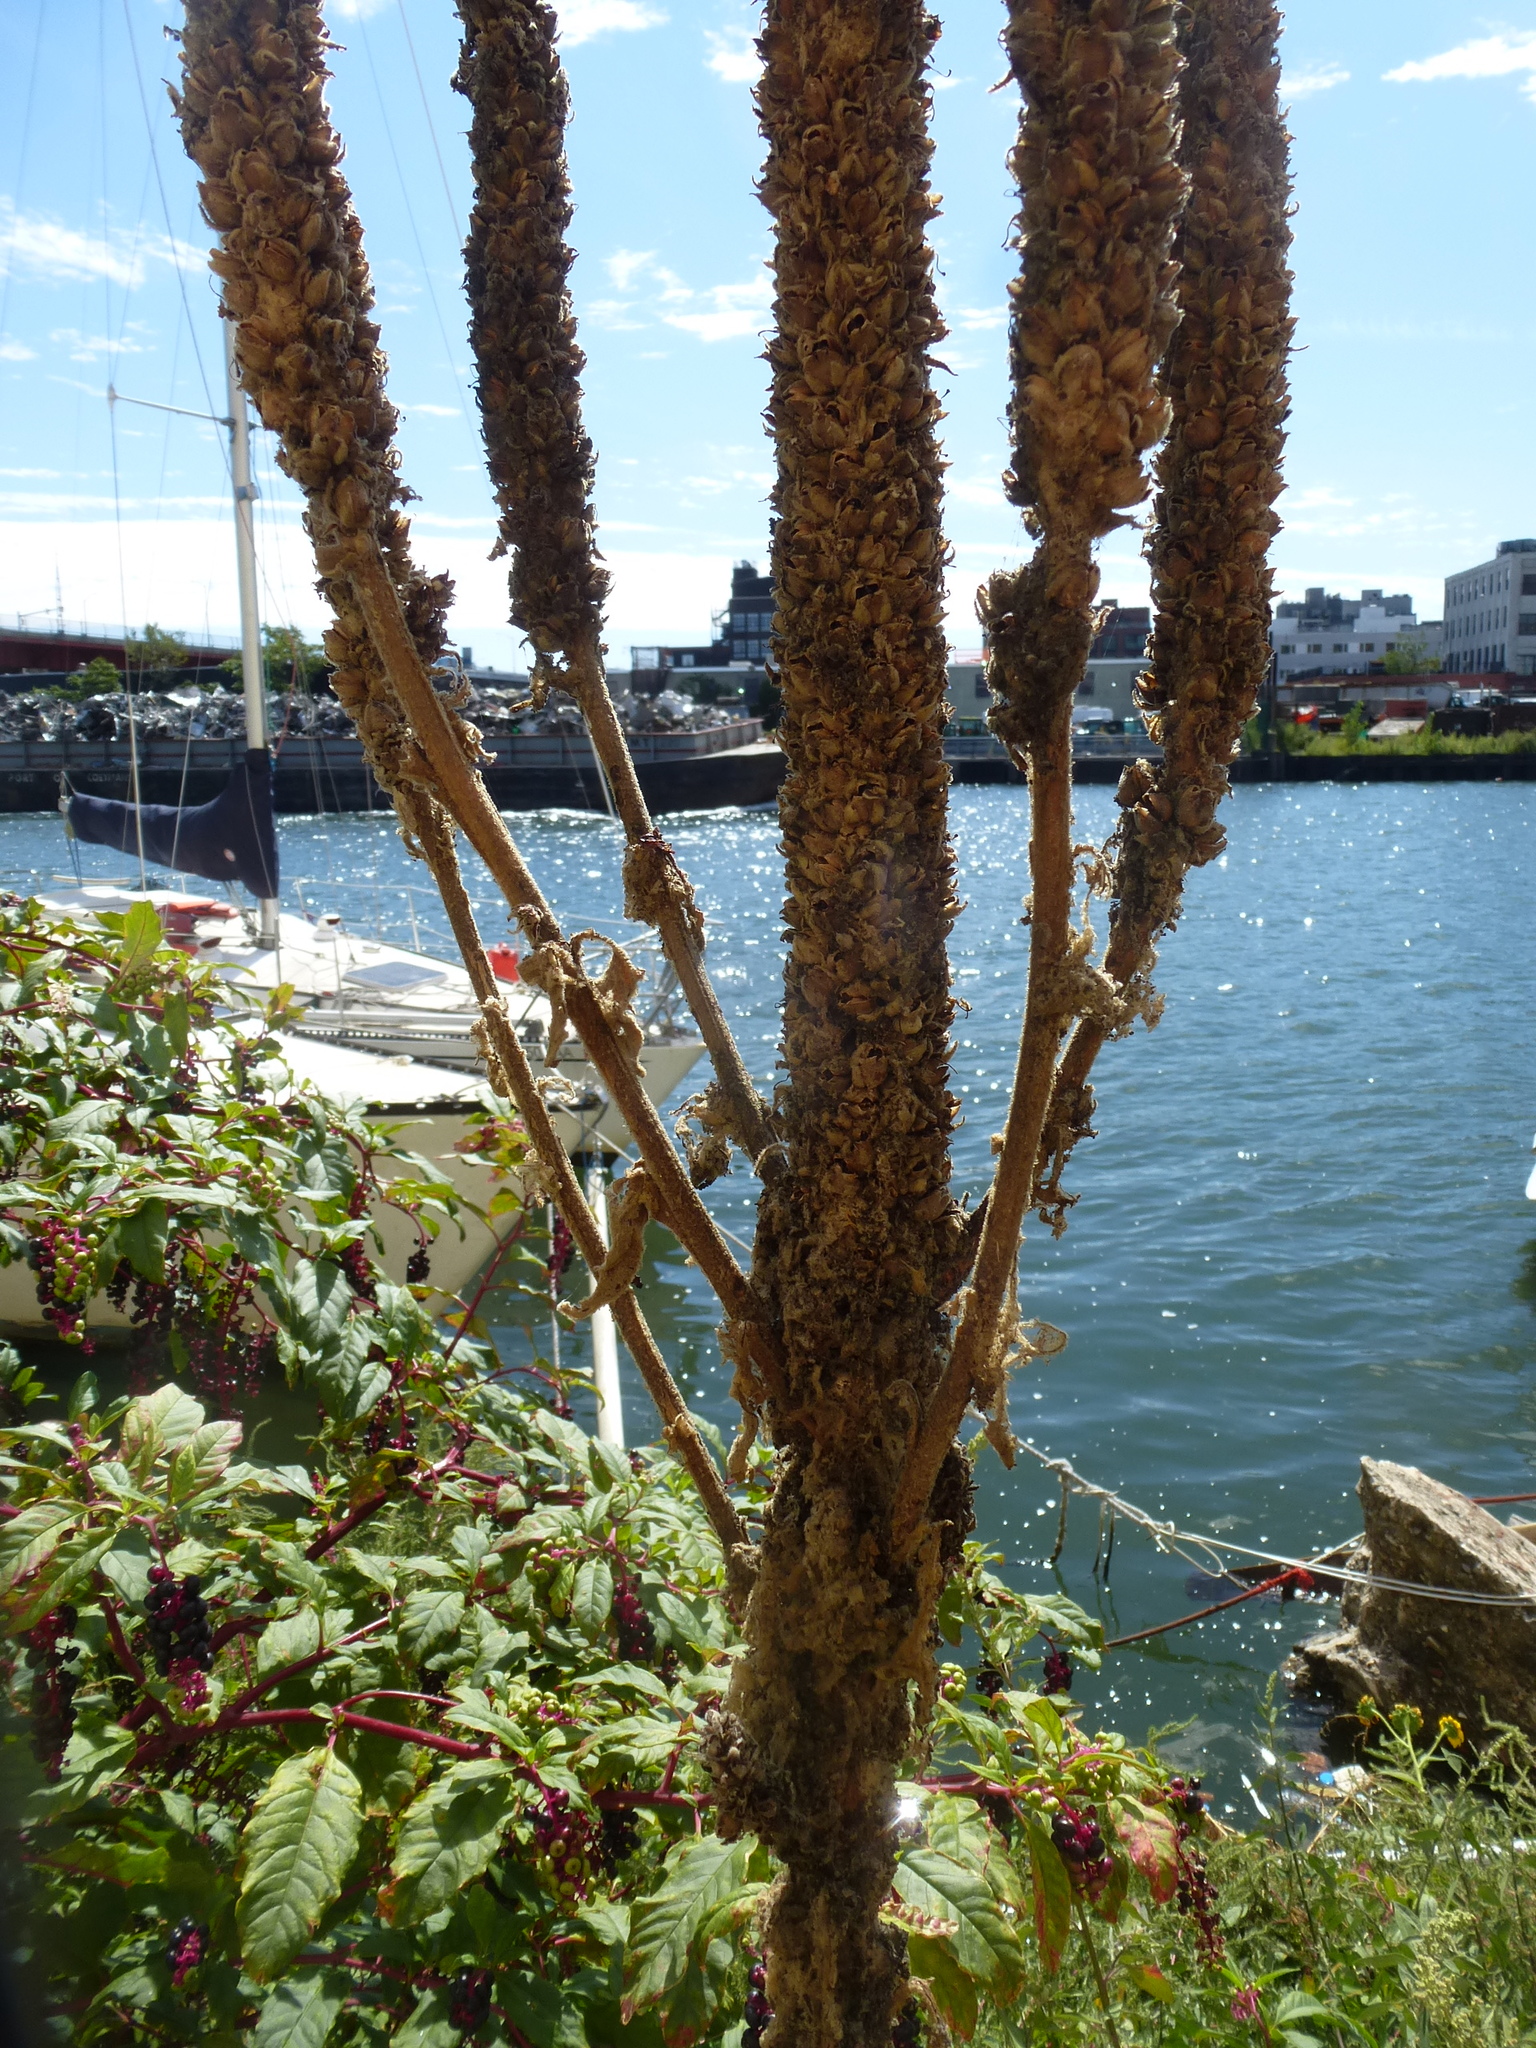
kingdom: Plantae
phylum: Tracheophyta
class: Magnoliopsida
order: Lamiales
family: Scrophulariaceae
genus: Verbascum
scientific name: Verbascum thapsus
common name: Common mullein
